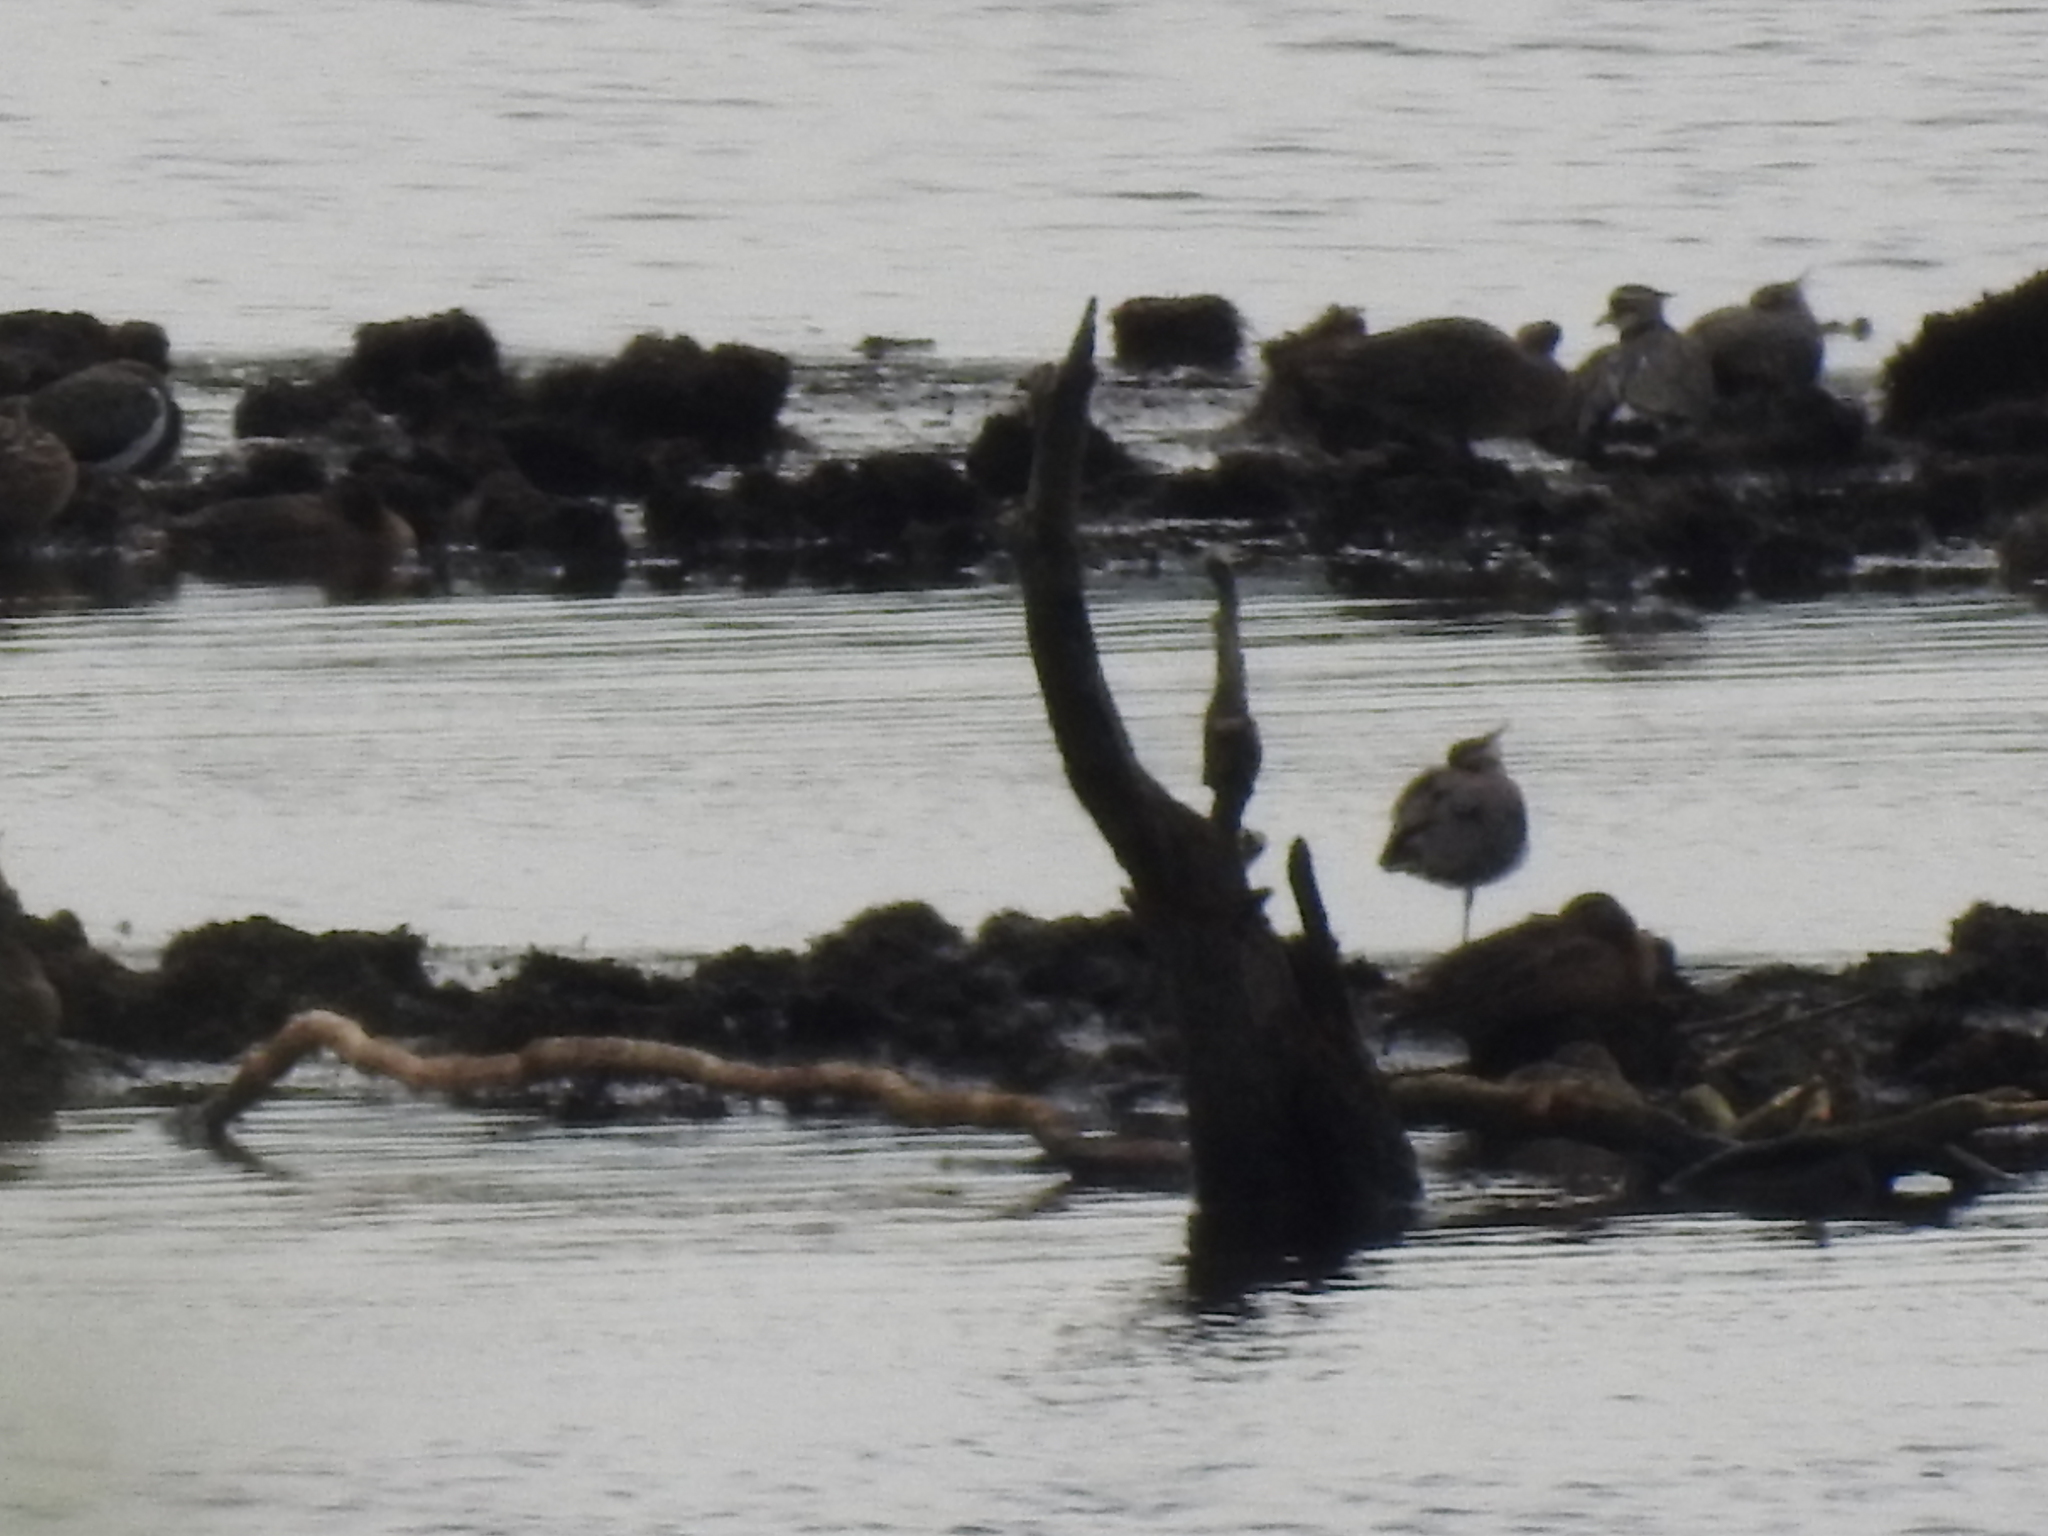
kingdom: Animalia
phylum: Chordata
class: Aves
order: Charadriiformes
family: Charadriidae
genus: Vanellus
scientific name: Vanellus vanellus
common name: Northern lapwing
